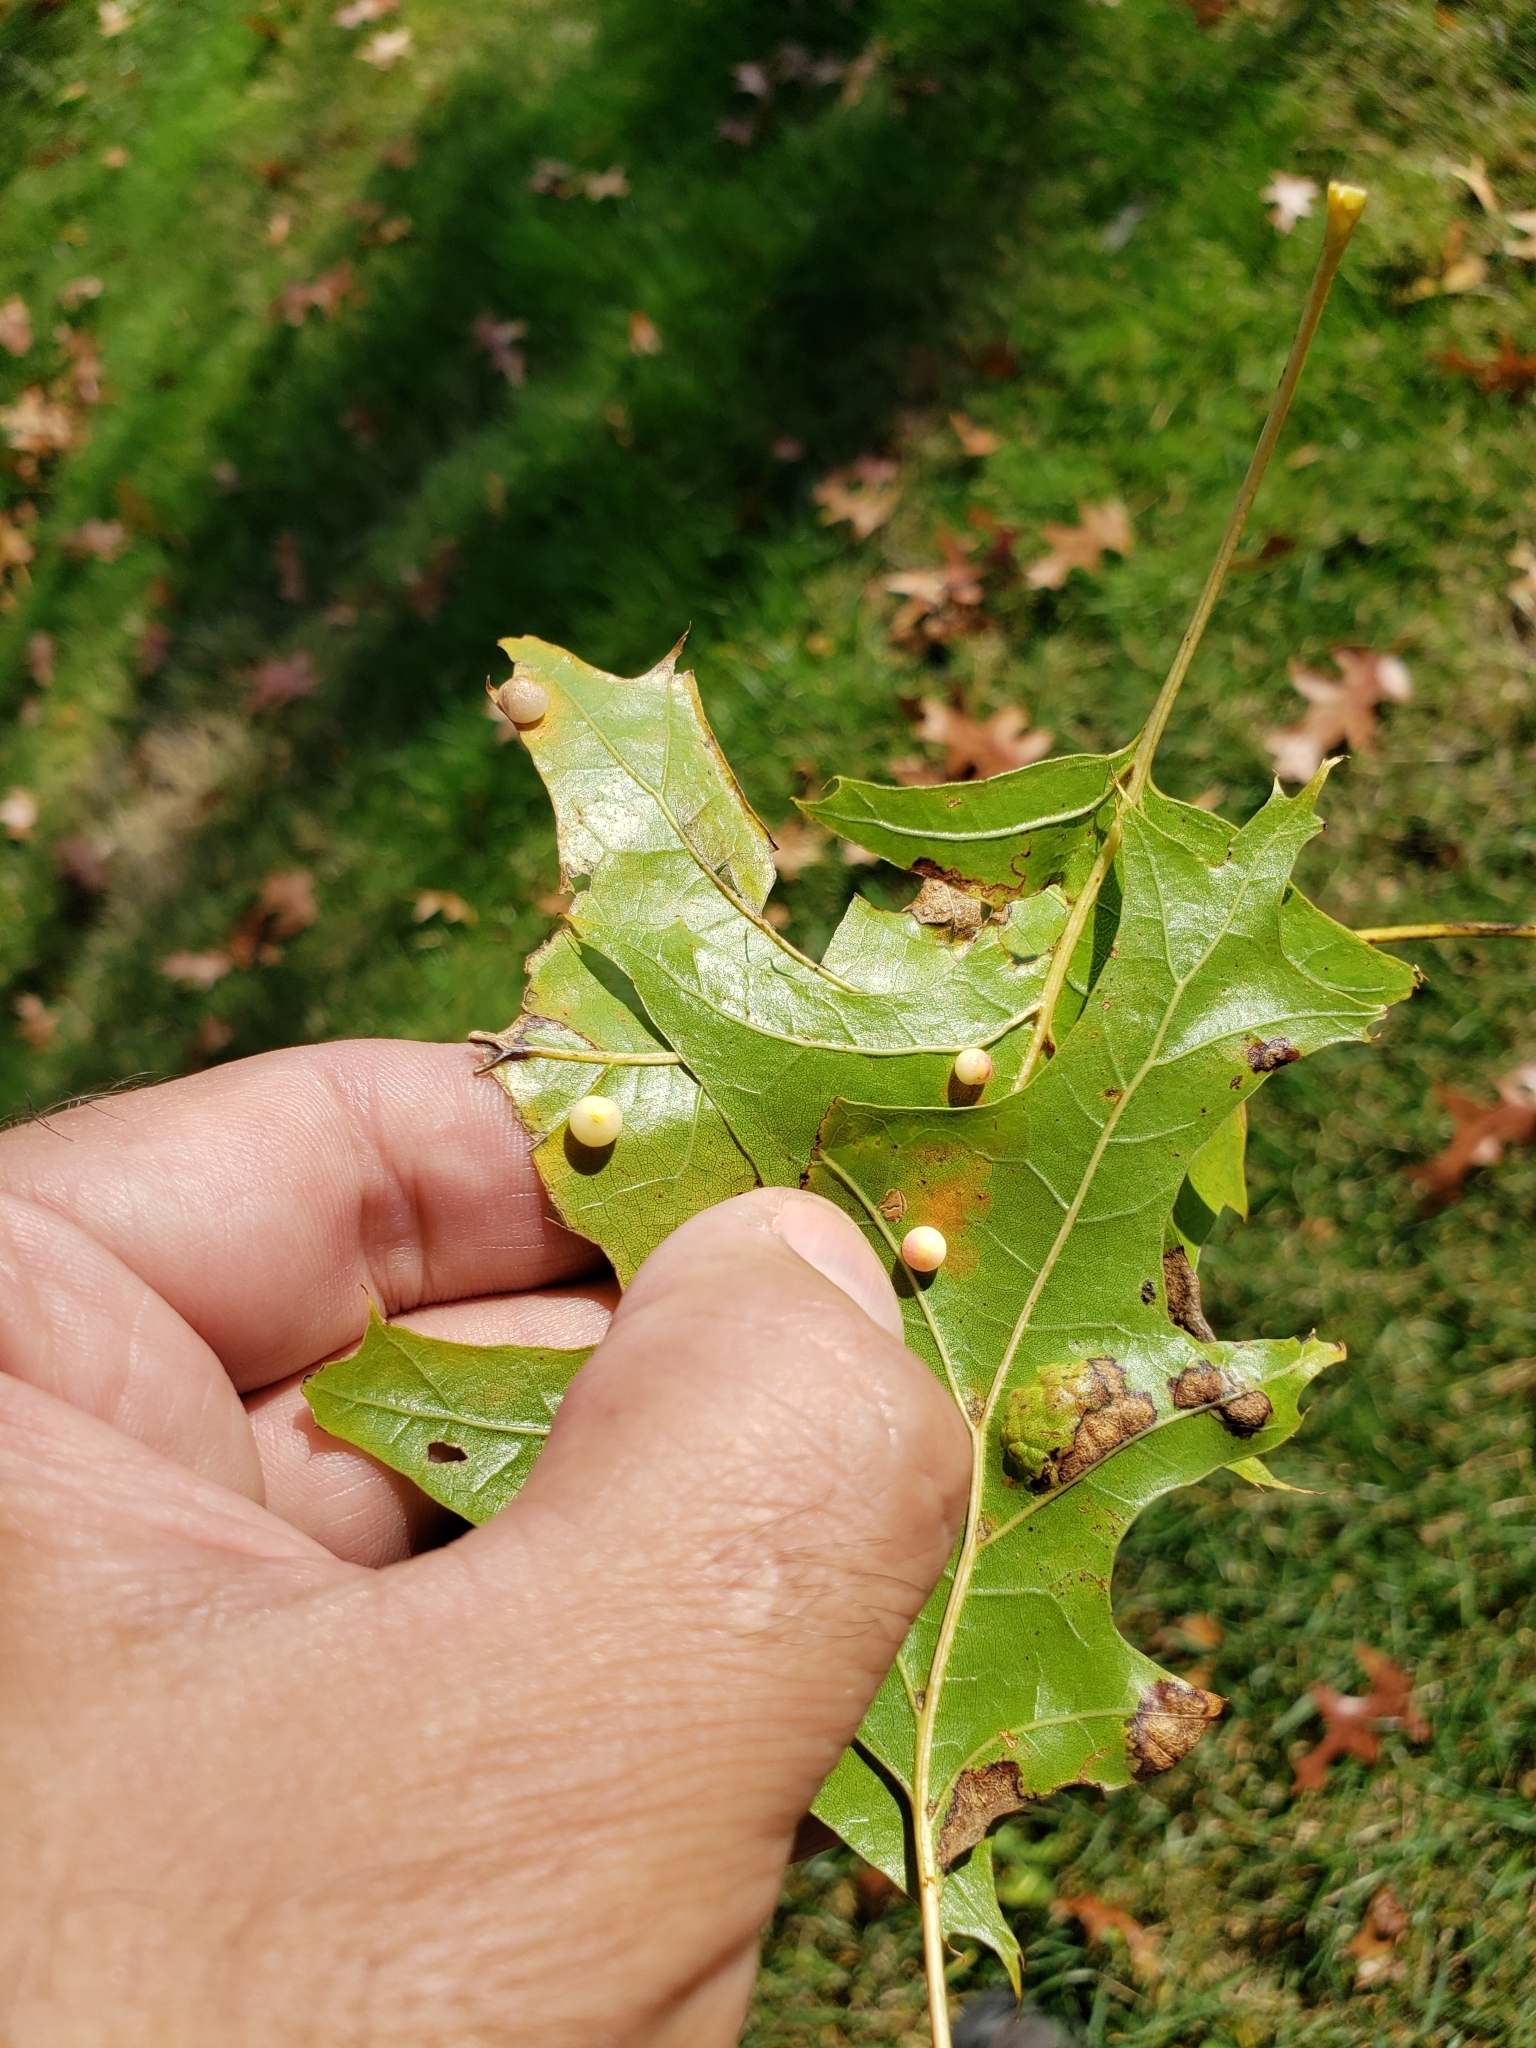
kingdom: Animalia
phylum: Arthropoda
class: Insecta
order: Hymenoptera
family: Cynipidae
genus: Zopheroteras
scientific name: Zopheroteras
